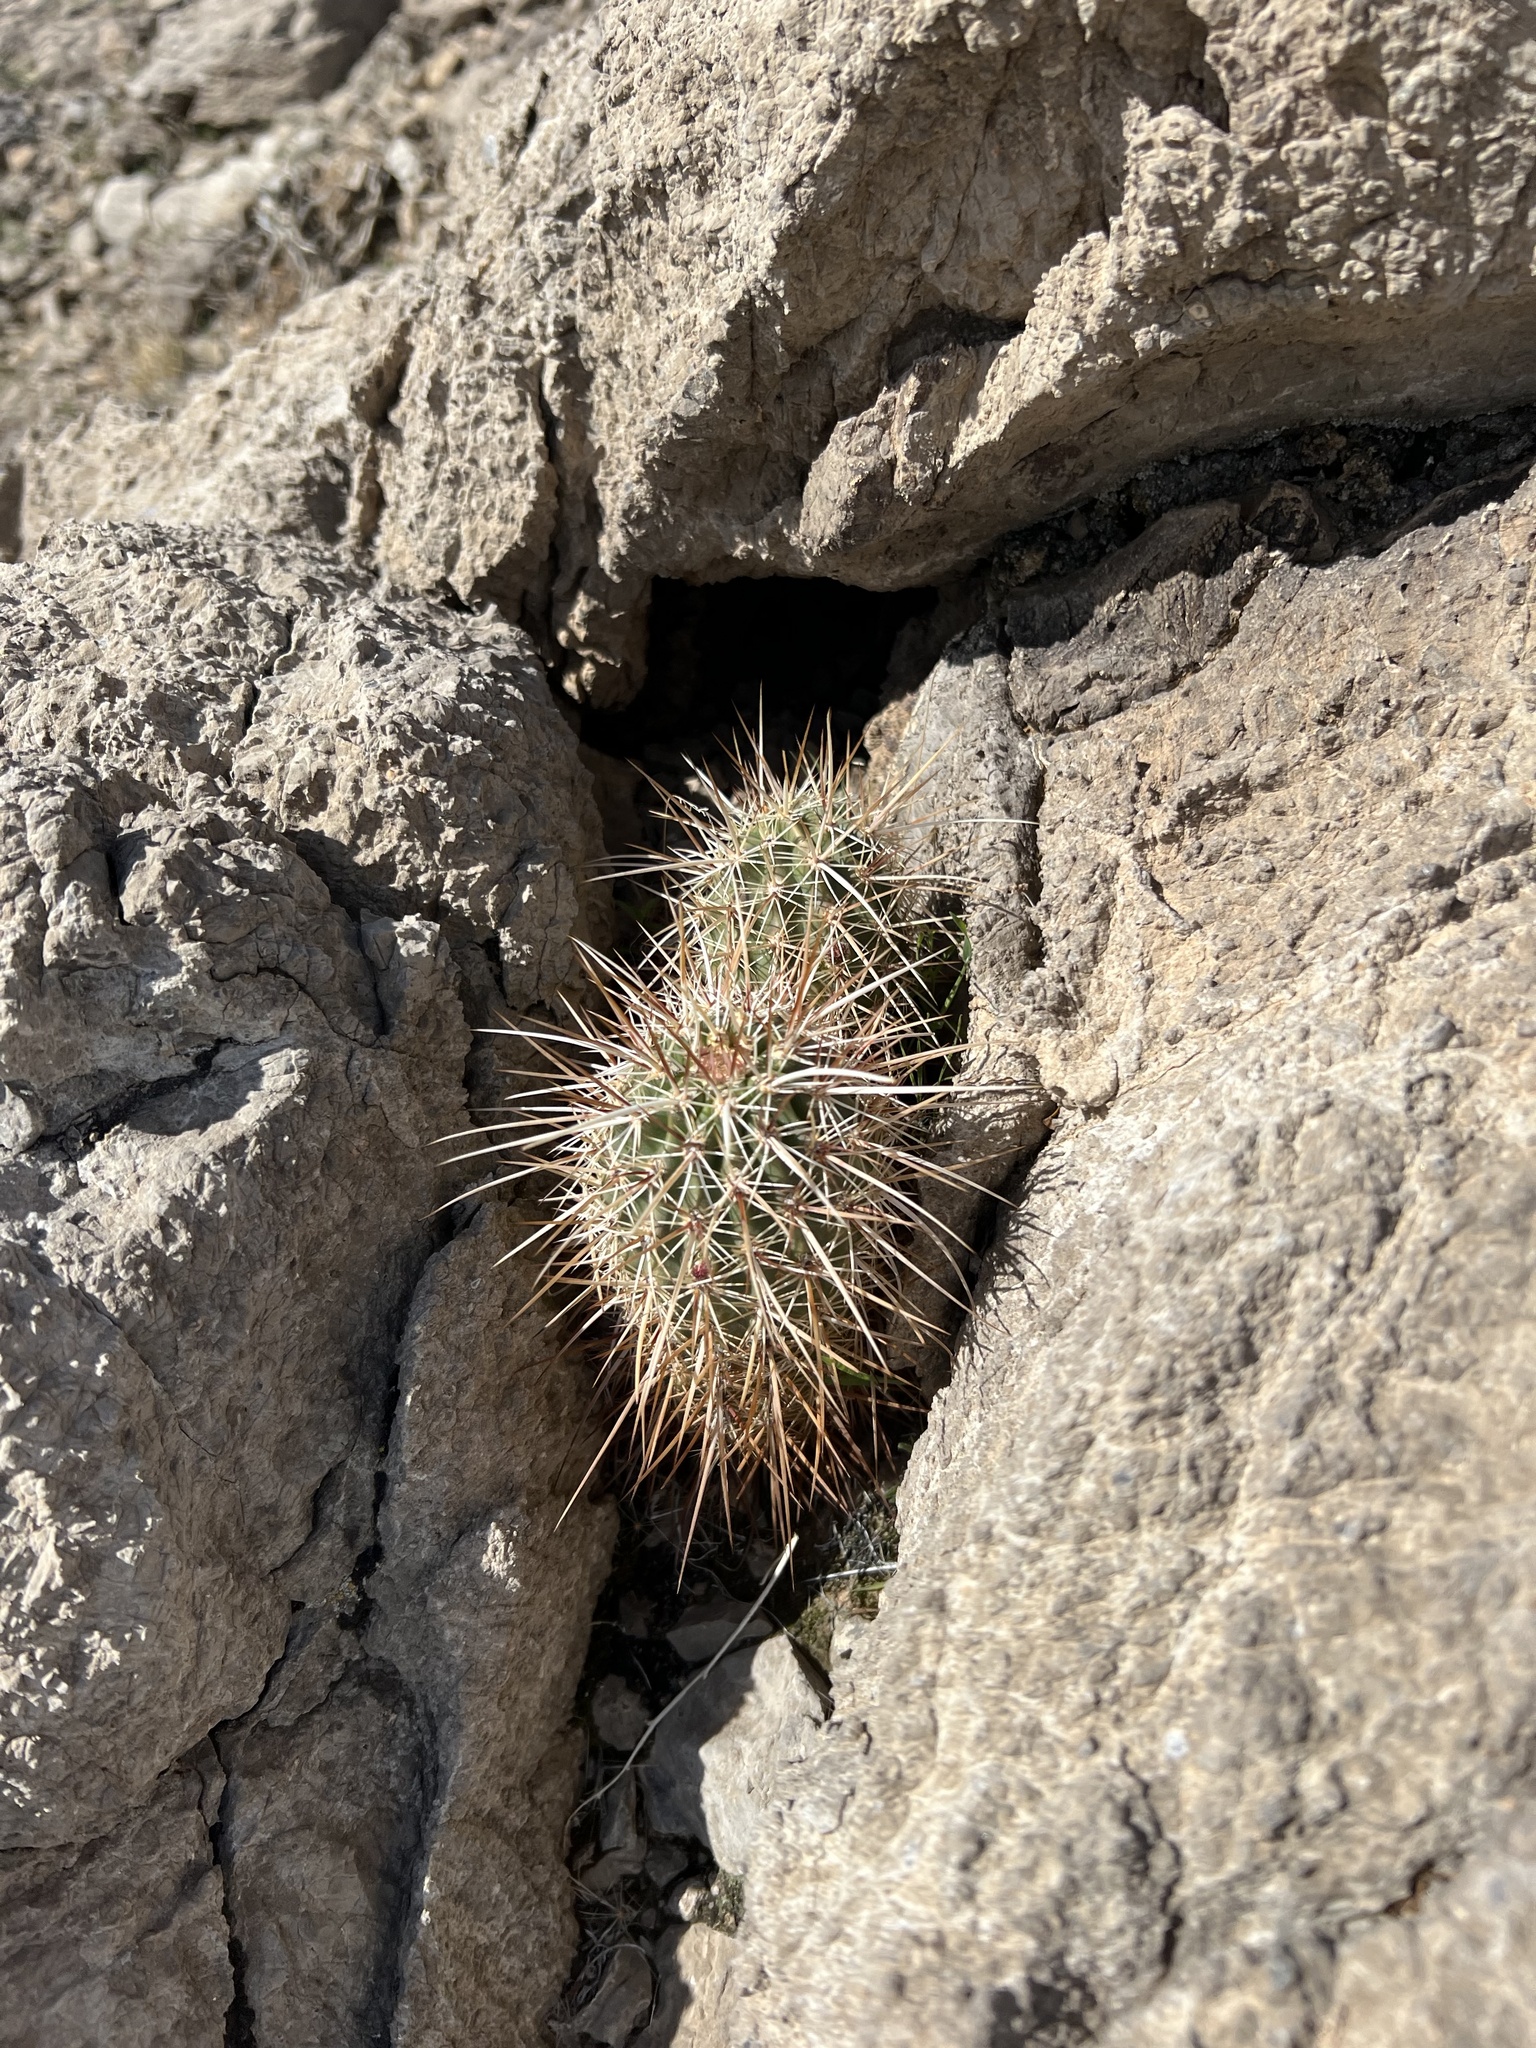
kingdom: Plantae
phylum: Tracheophyta
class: Magnoliopsida
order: Caryophyllales
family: Cactaceae
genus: Echinocereus
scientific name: Echinocereus engelmannii
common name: Engelmann's hedgehog cactus
